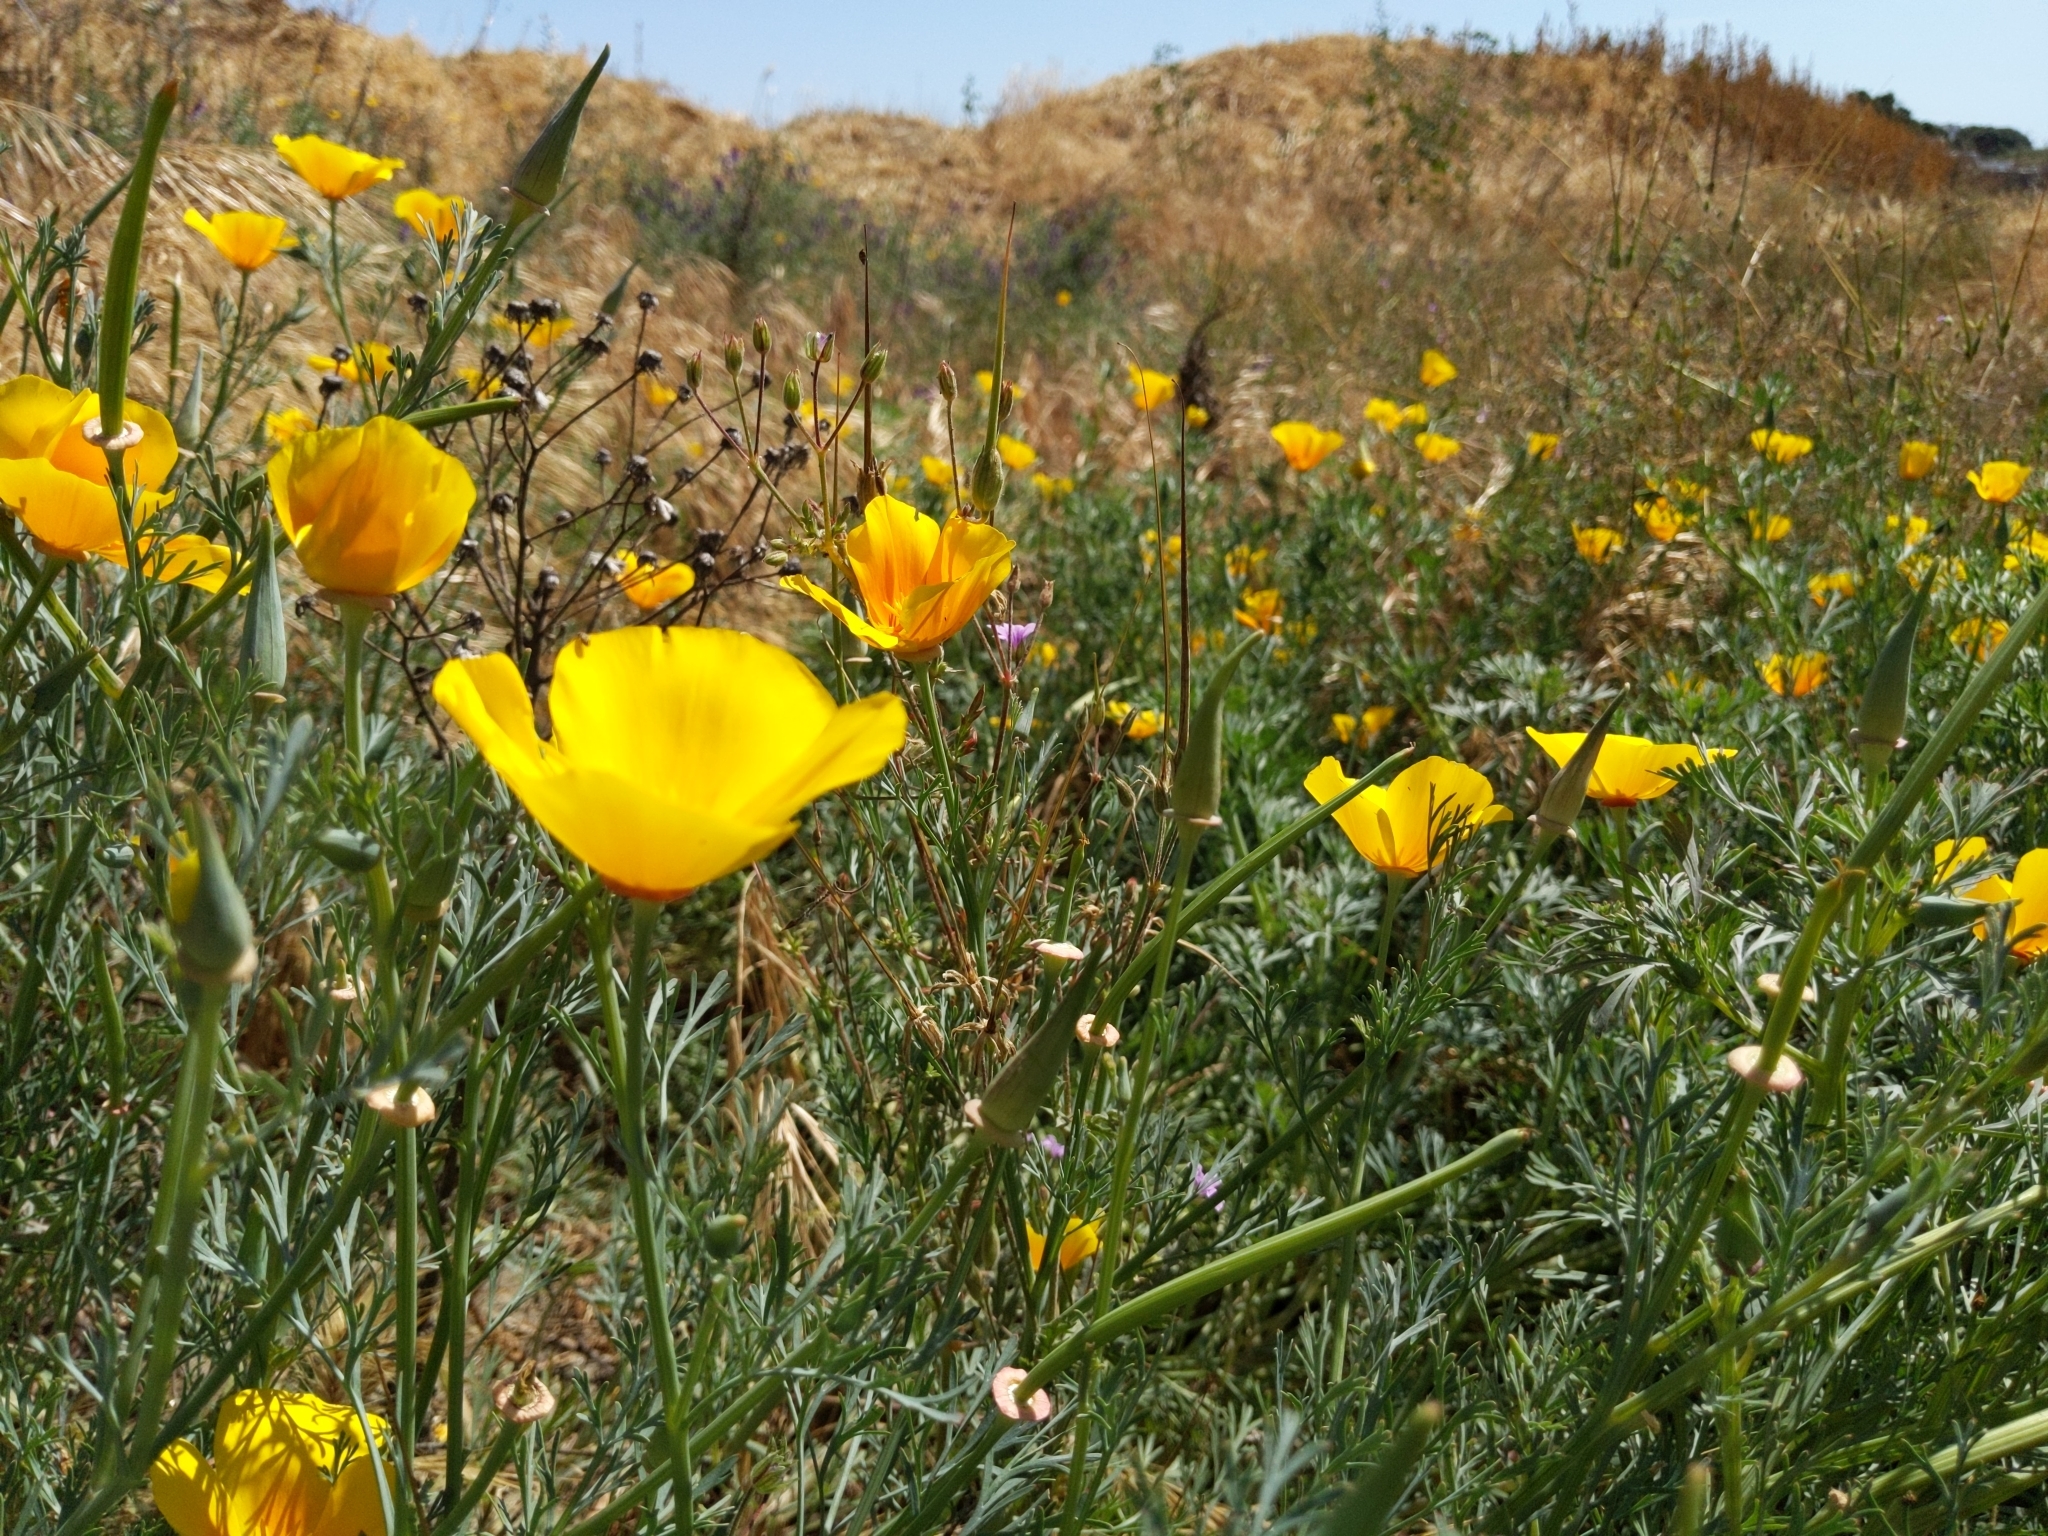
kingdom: Plantae
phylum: Tracheophyta
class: Magnoliopsida
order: Ranunculales
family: Papaveraceae
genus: Eschscholzia
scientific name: Eschscholzia californica
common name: California poppy
